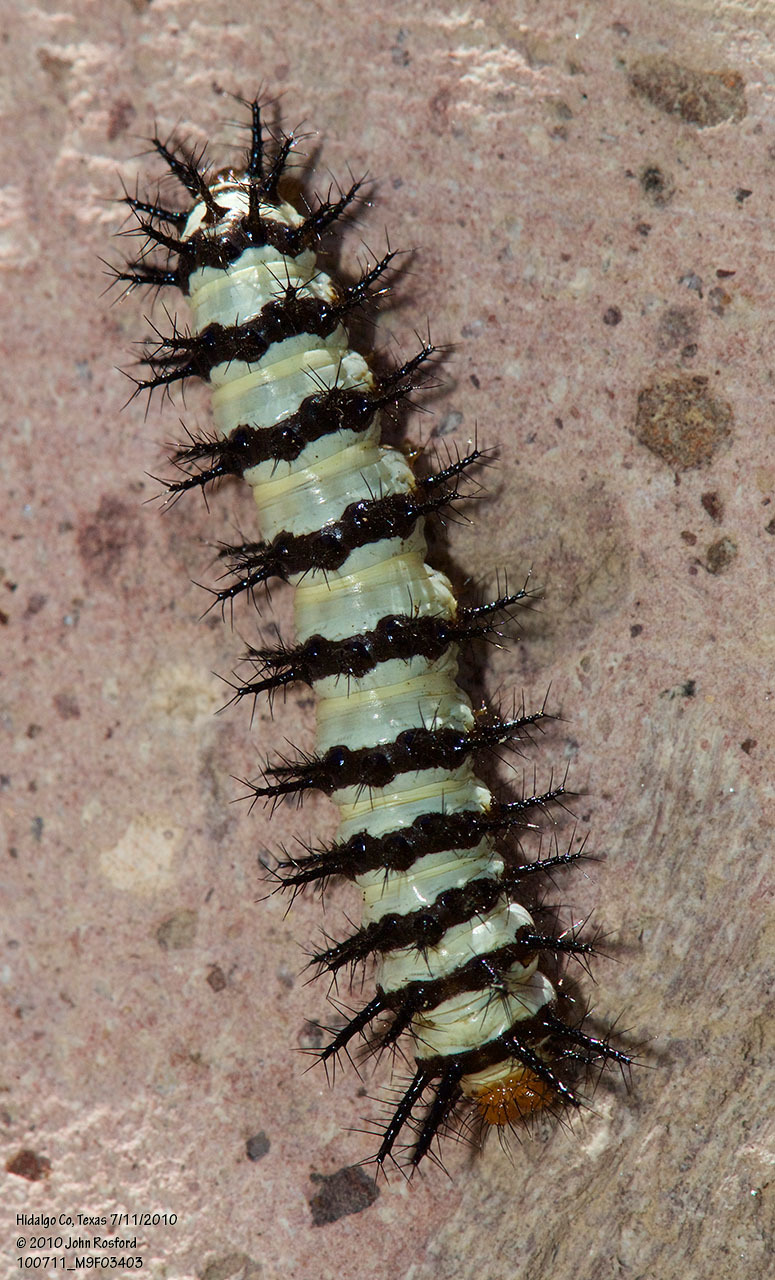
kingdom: Animalia
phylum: Arthropoda
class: Insecta
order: Lepidoptera
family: Nymphalidae
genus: Chlosyne
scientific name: Chlosyne janais
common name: Crimson patch
